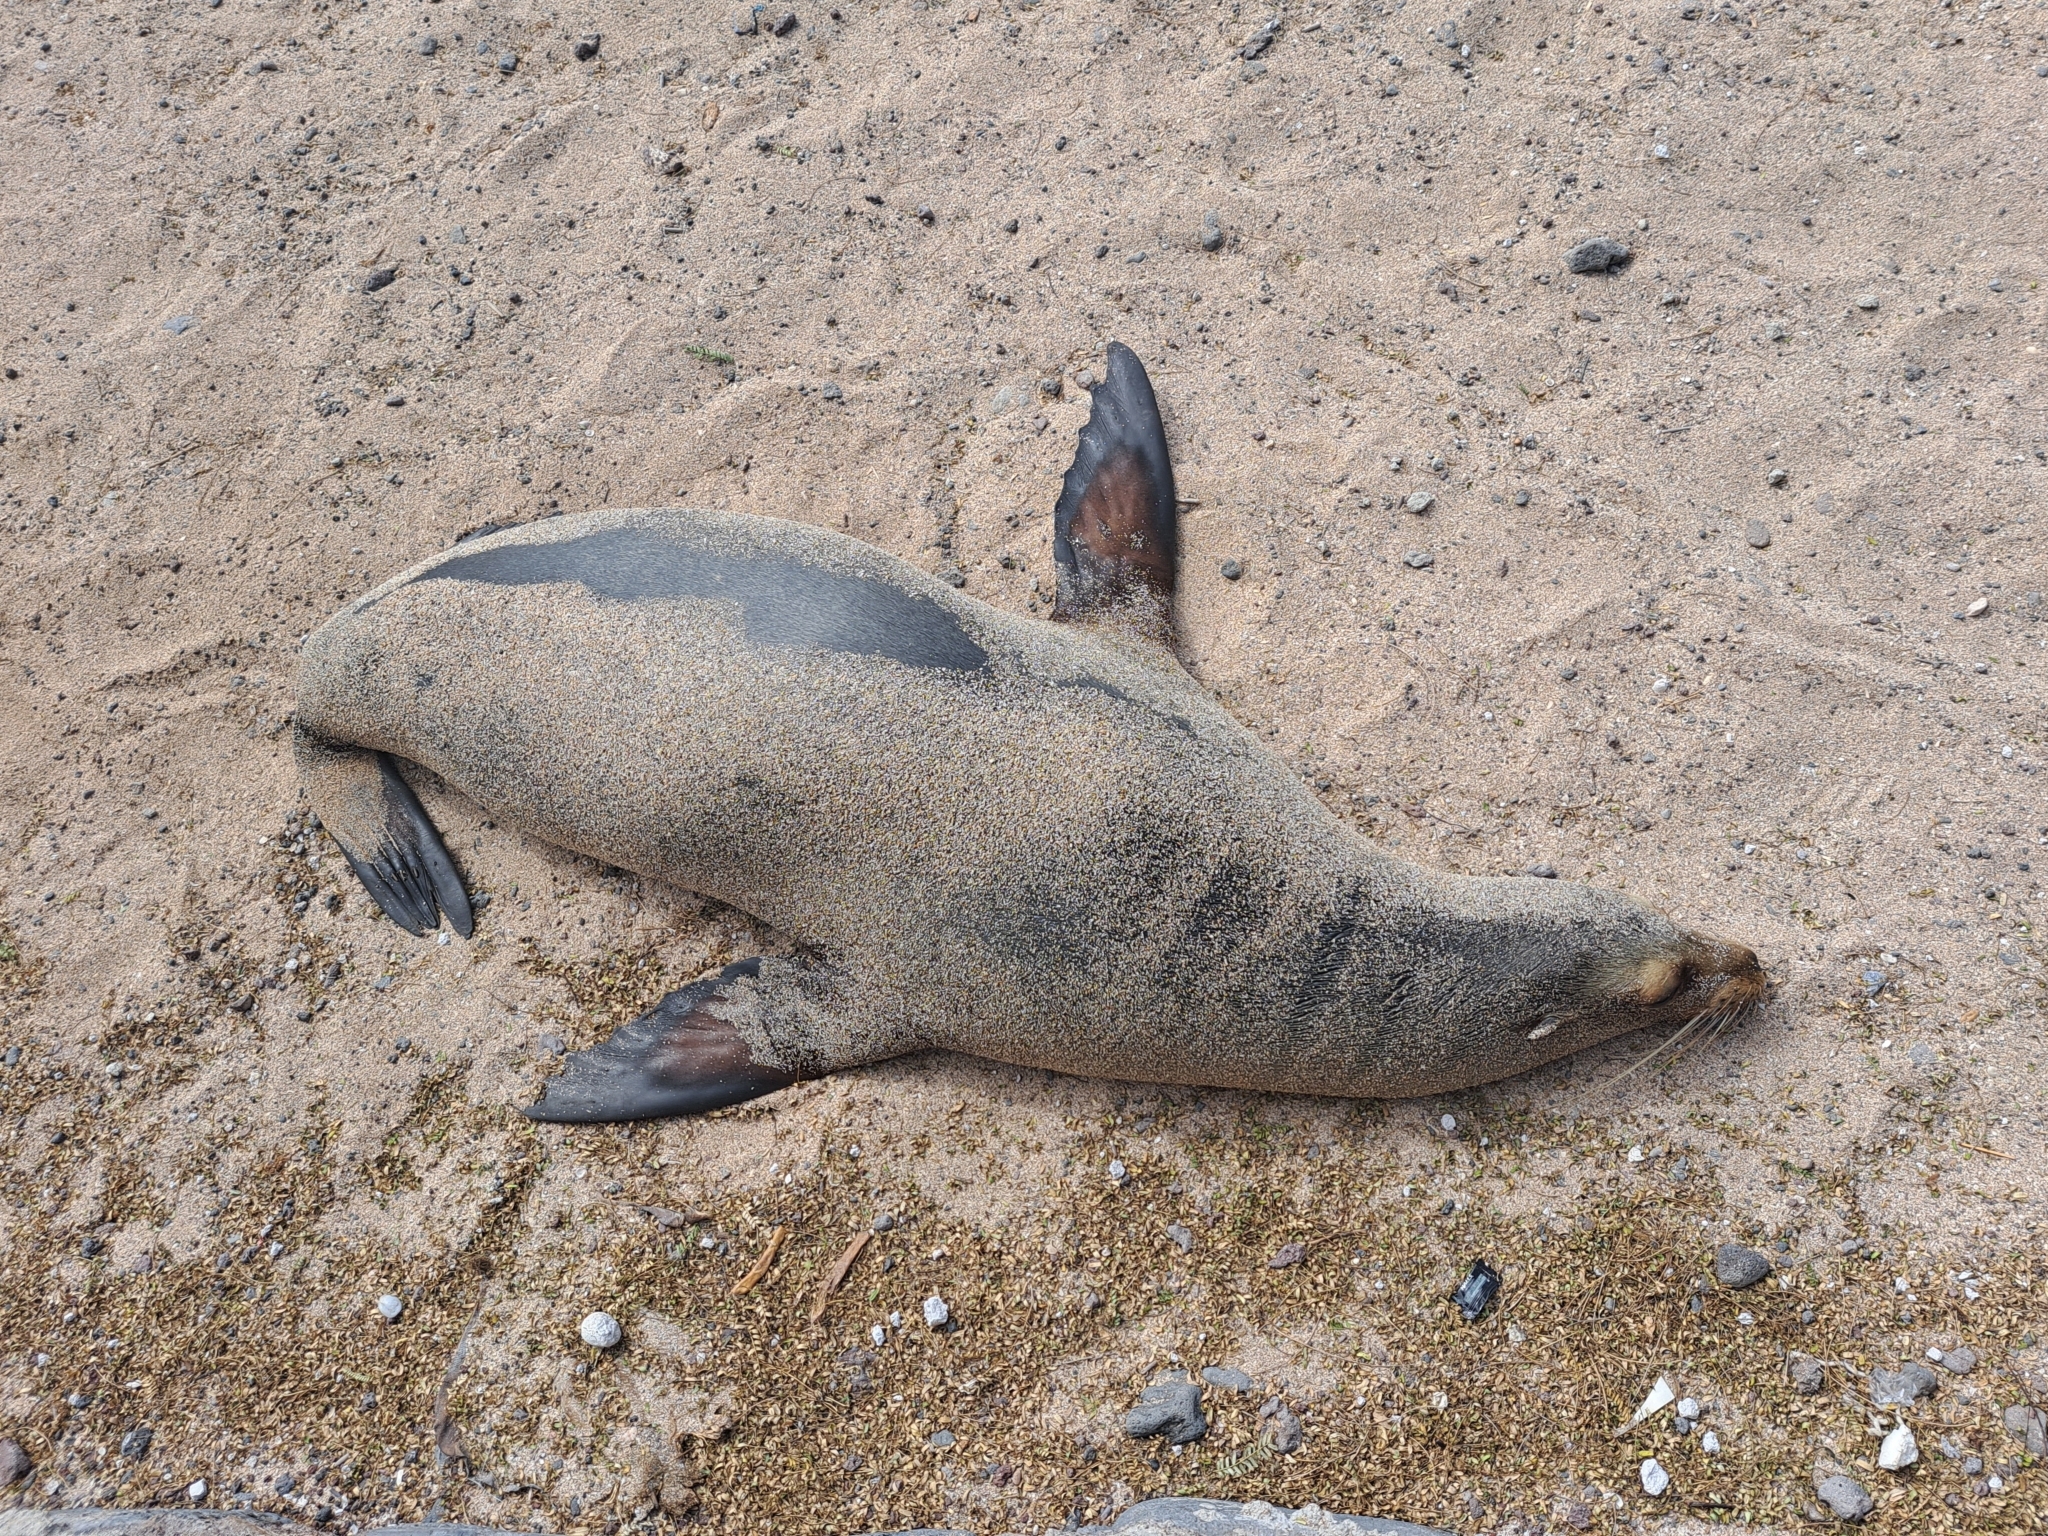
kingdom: Animalia
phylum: Chordata
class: Mammalia
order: Carnivora
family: Otariidae
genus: Zalophus
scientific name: Zalophus wollebaeki
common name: Galapagos sea lion
